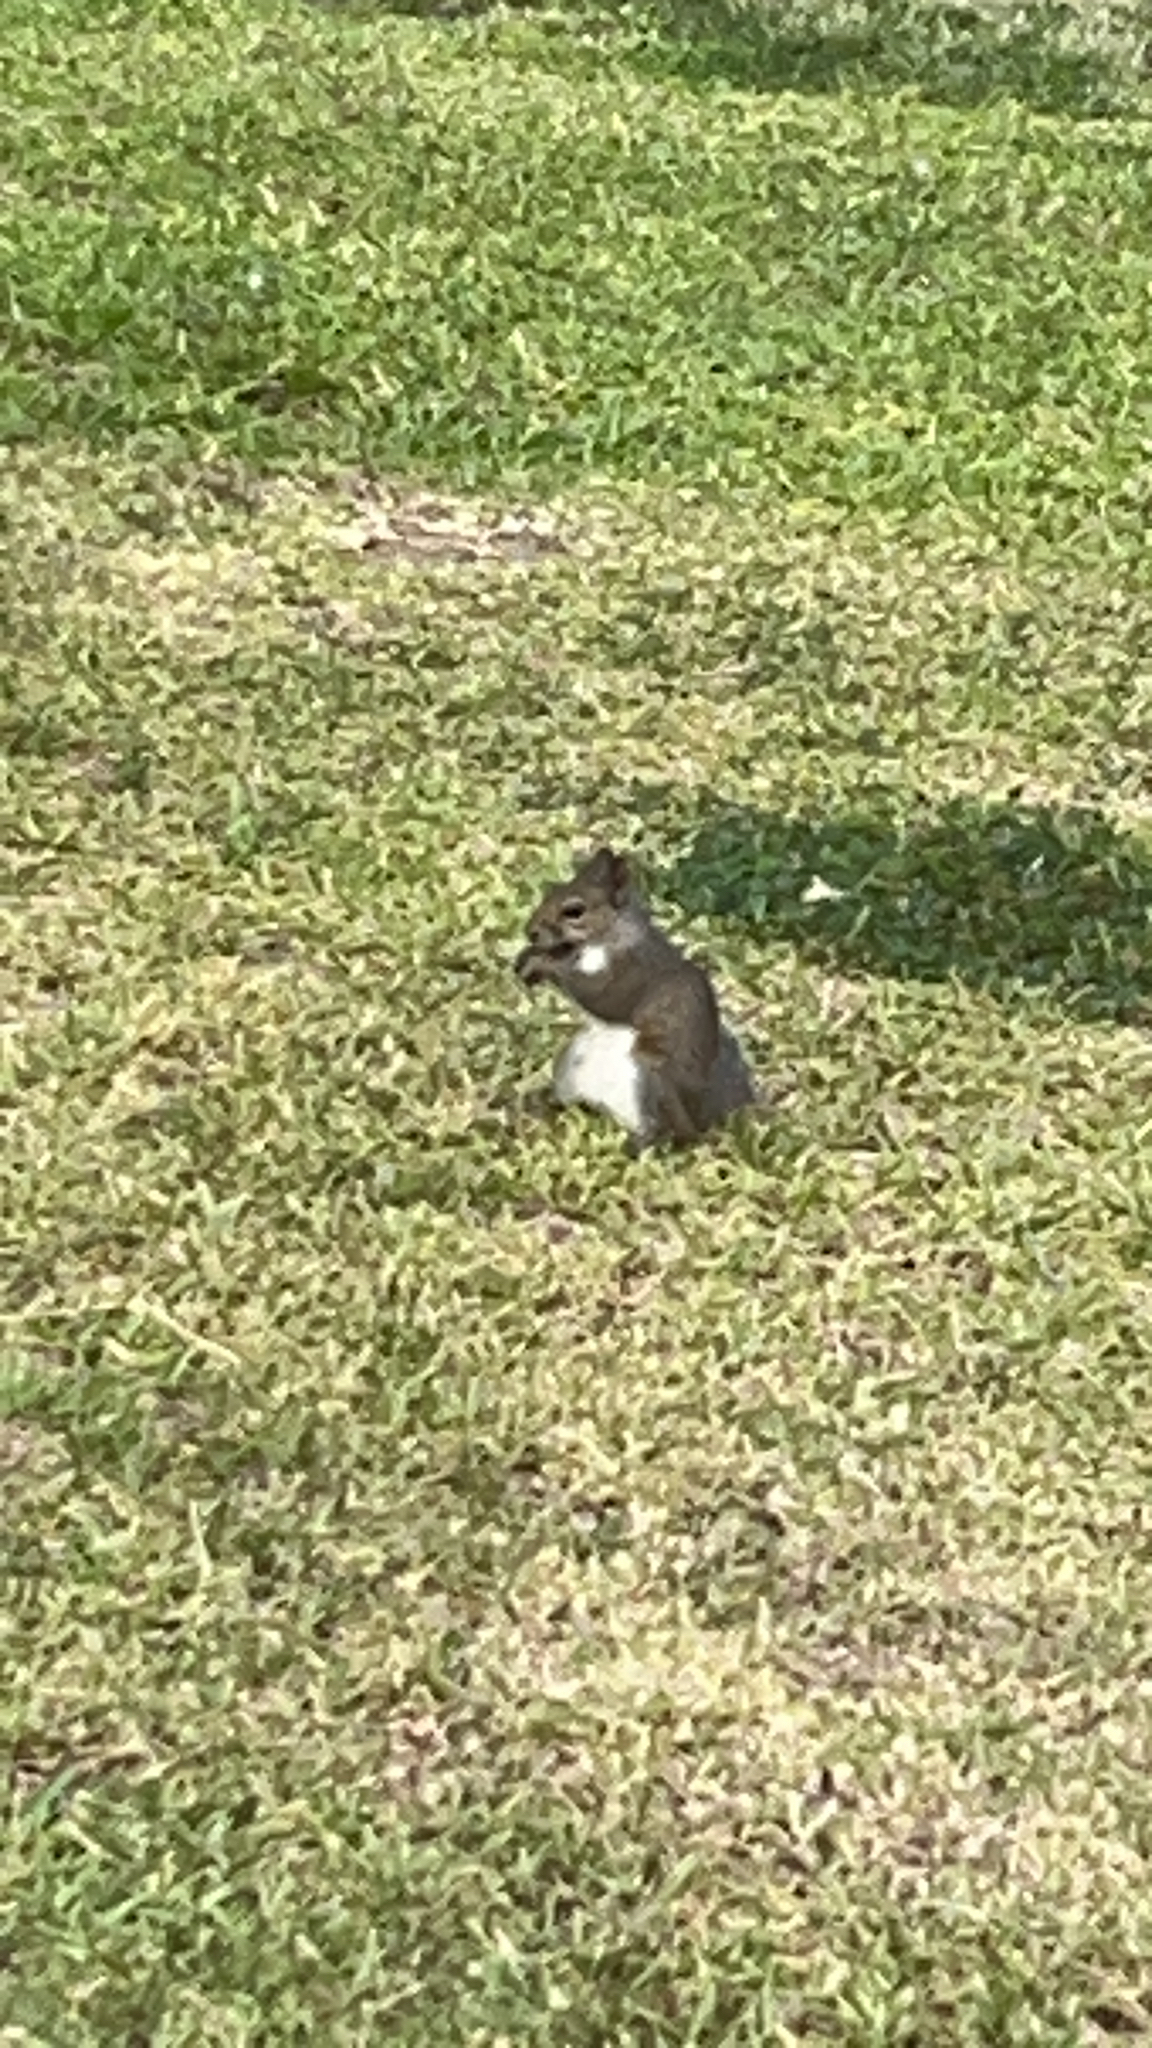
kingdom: Animalia
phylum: Chordata
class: Mammalia
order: Rodentia
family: Sciuridae
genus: Sciurus
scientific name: Sciurus carolinensis
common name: Eastern gray squirrel
